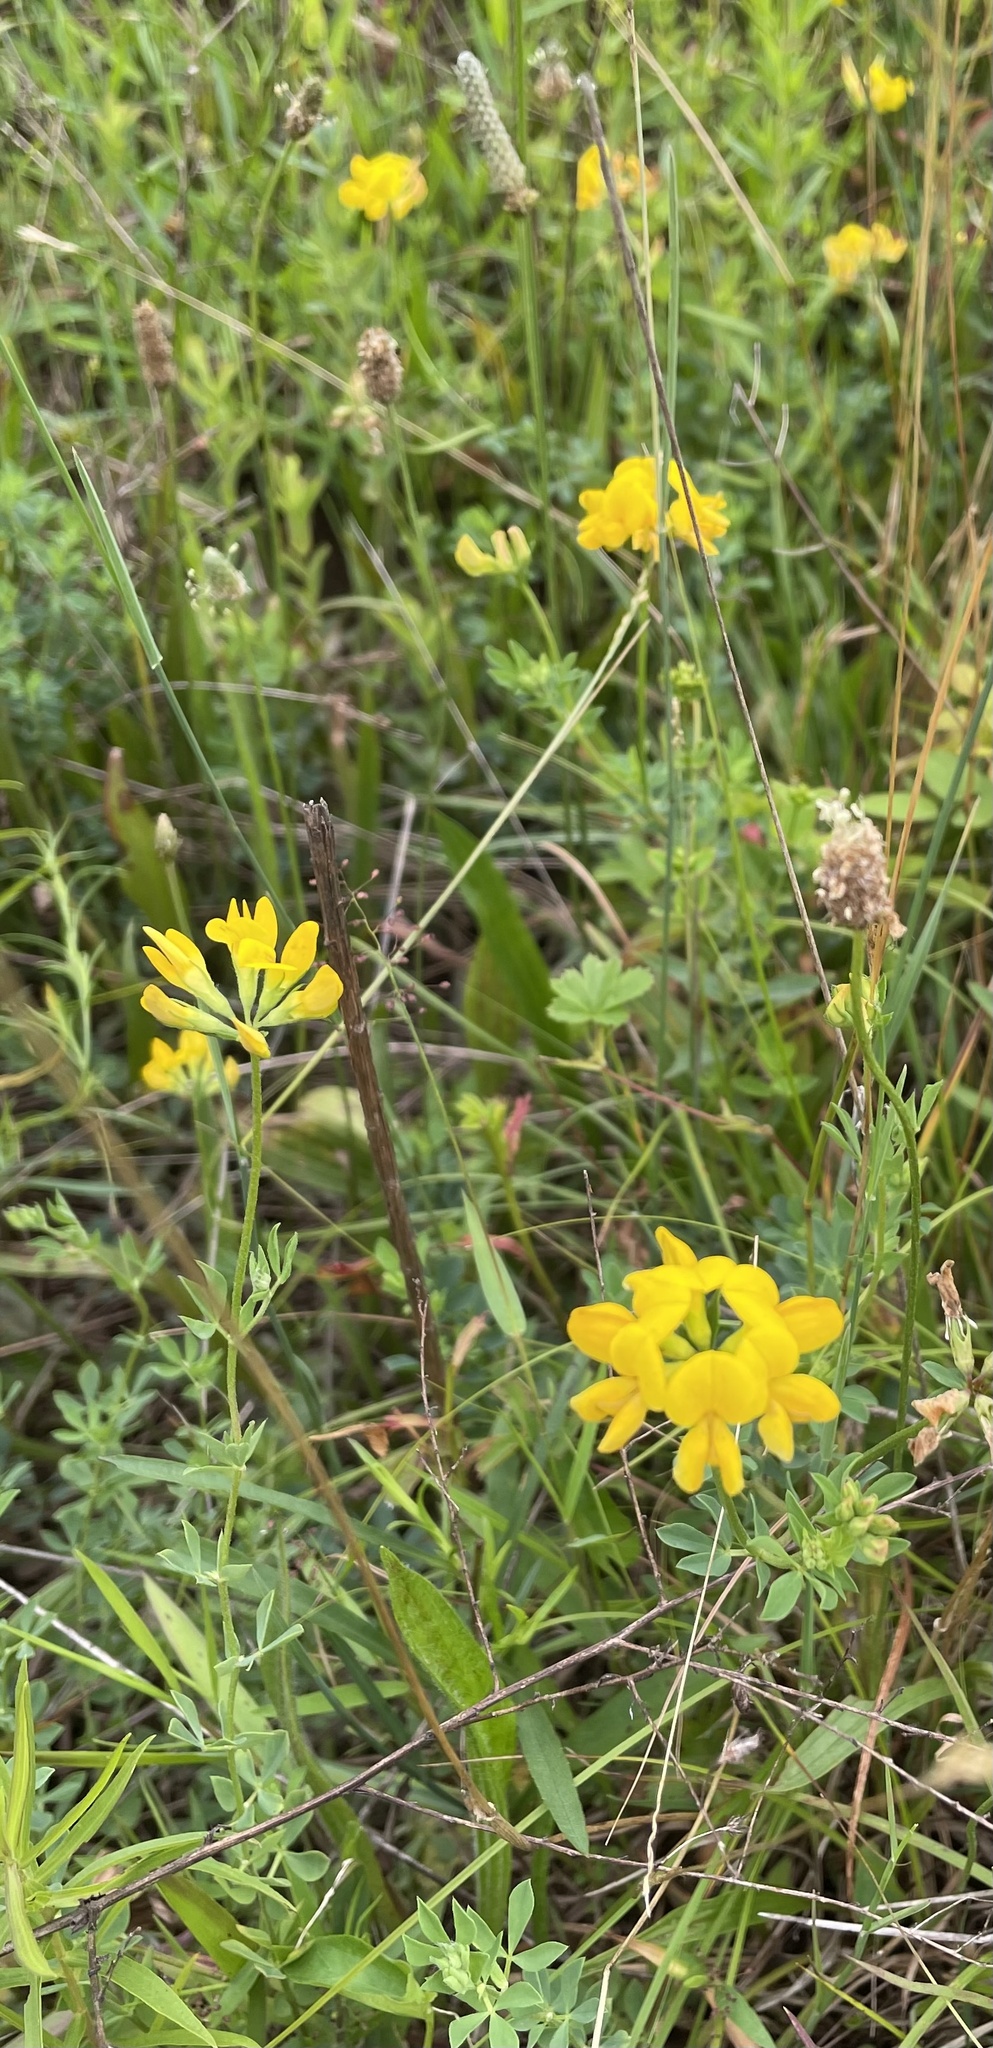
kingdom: Plantae
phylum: Tracheophyta
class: Magnoliopsida
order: Fabales
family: Fabaceae
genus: Lotus
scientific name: Lotus corniculatus
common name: Common bird's-foot-trefoil
